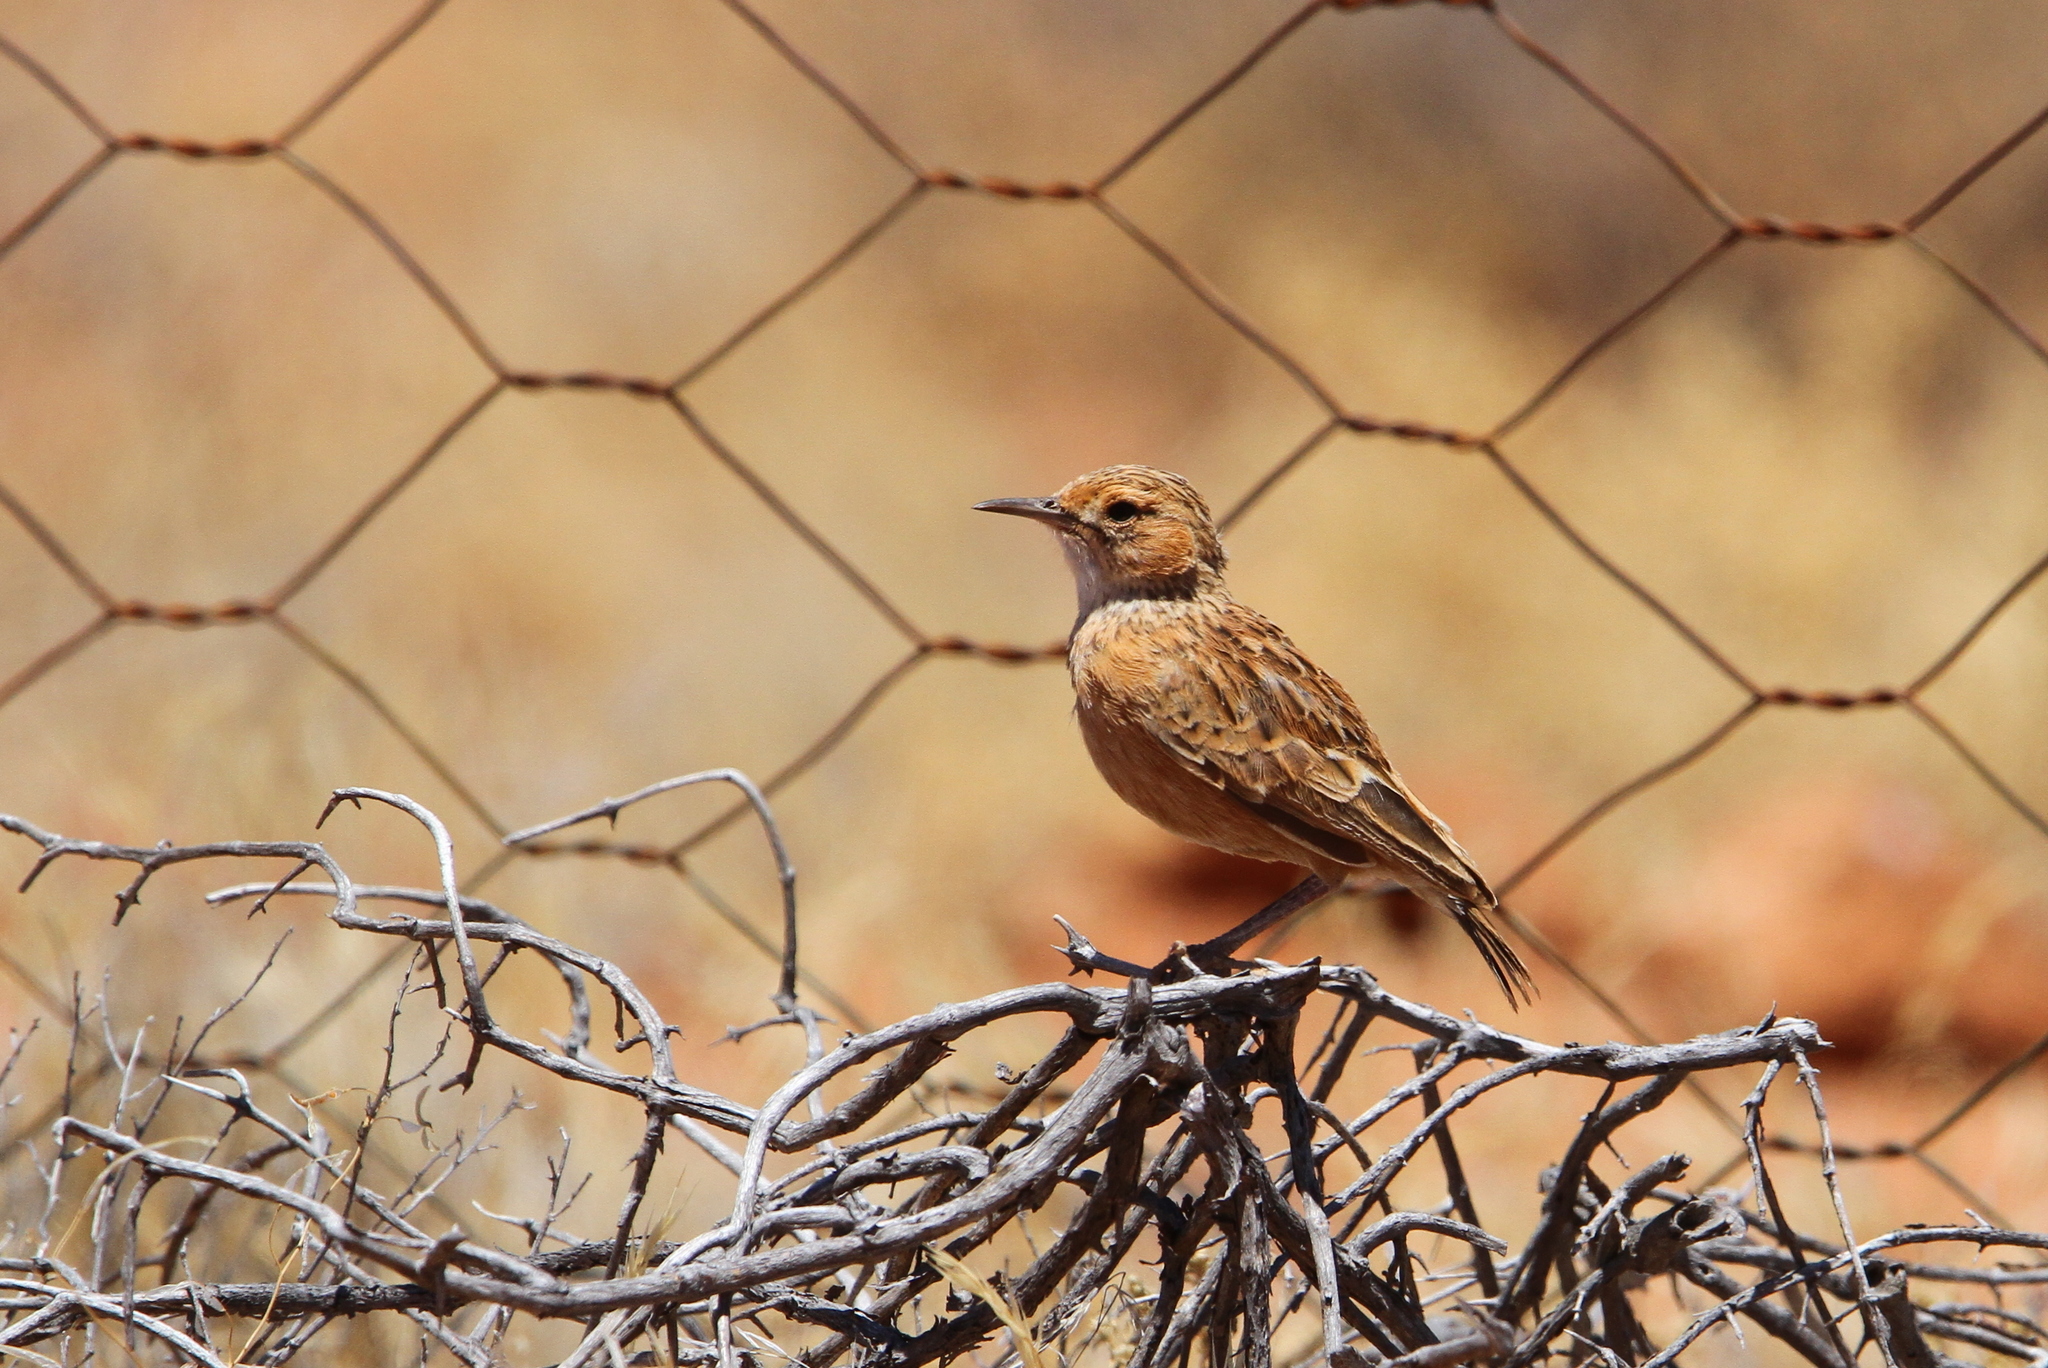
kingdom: Animalia
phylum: Chordata
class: Aves
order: Passeriformes
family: Alaudidae
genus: Chersomanes
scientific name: Chersomanes albofasciata
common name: Spike-heeled lark
